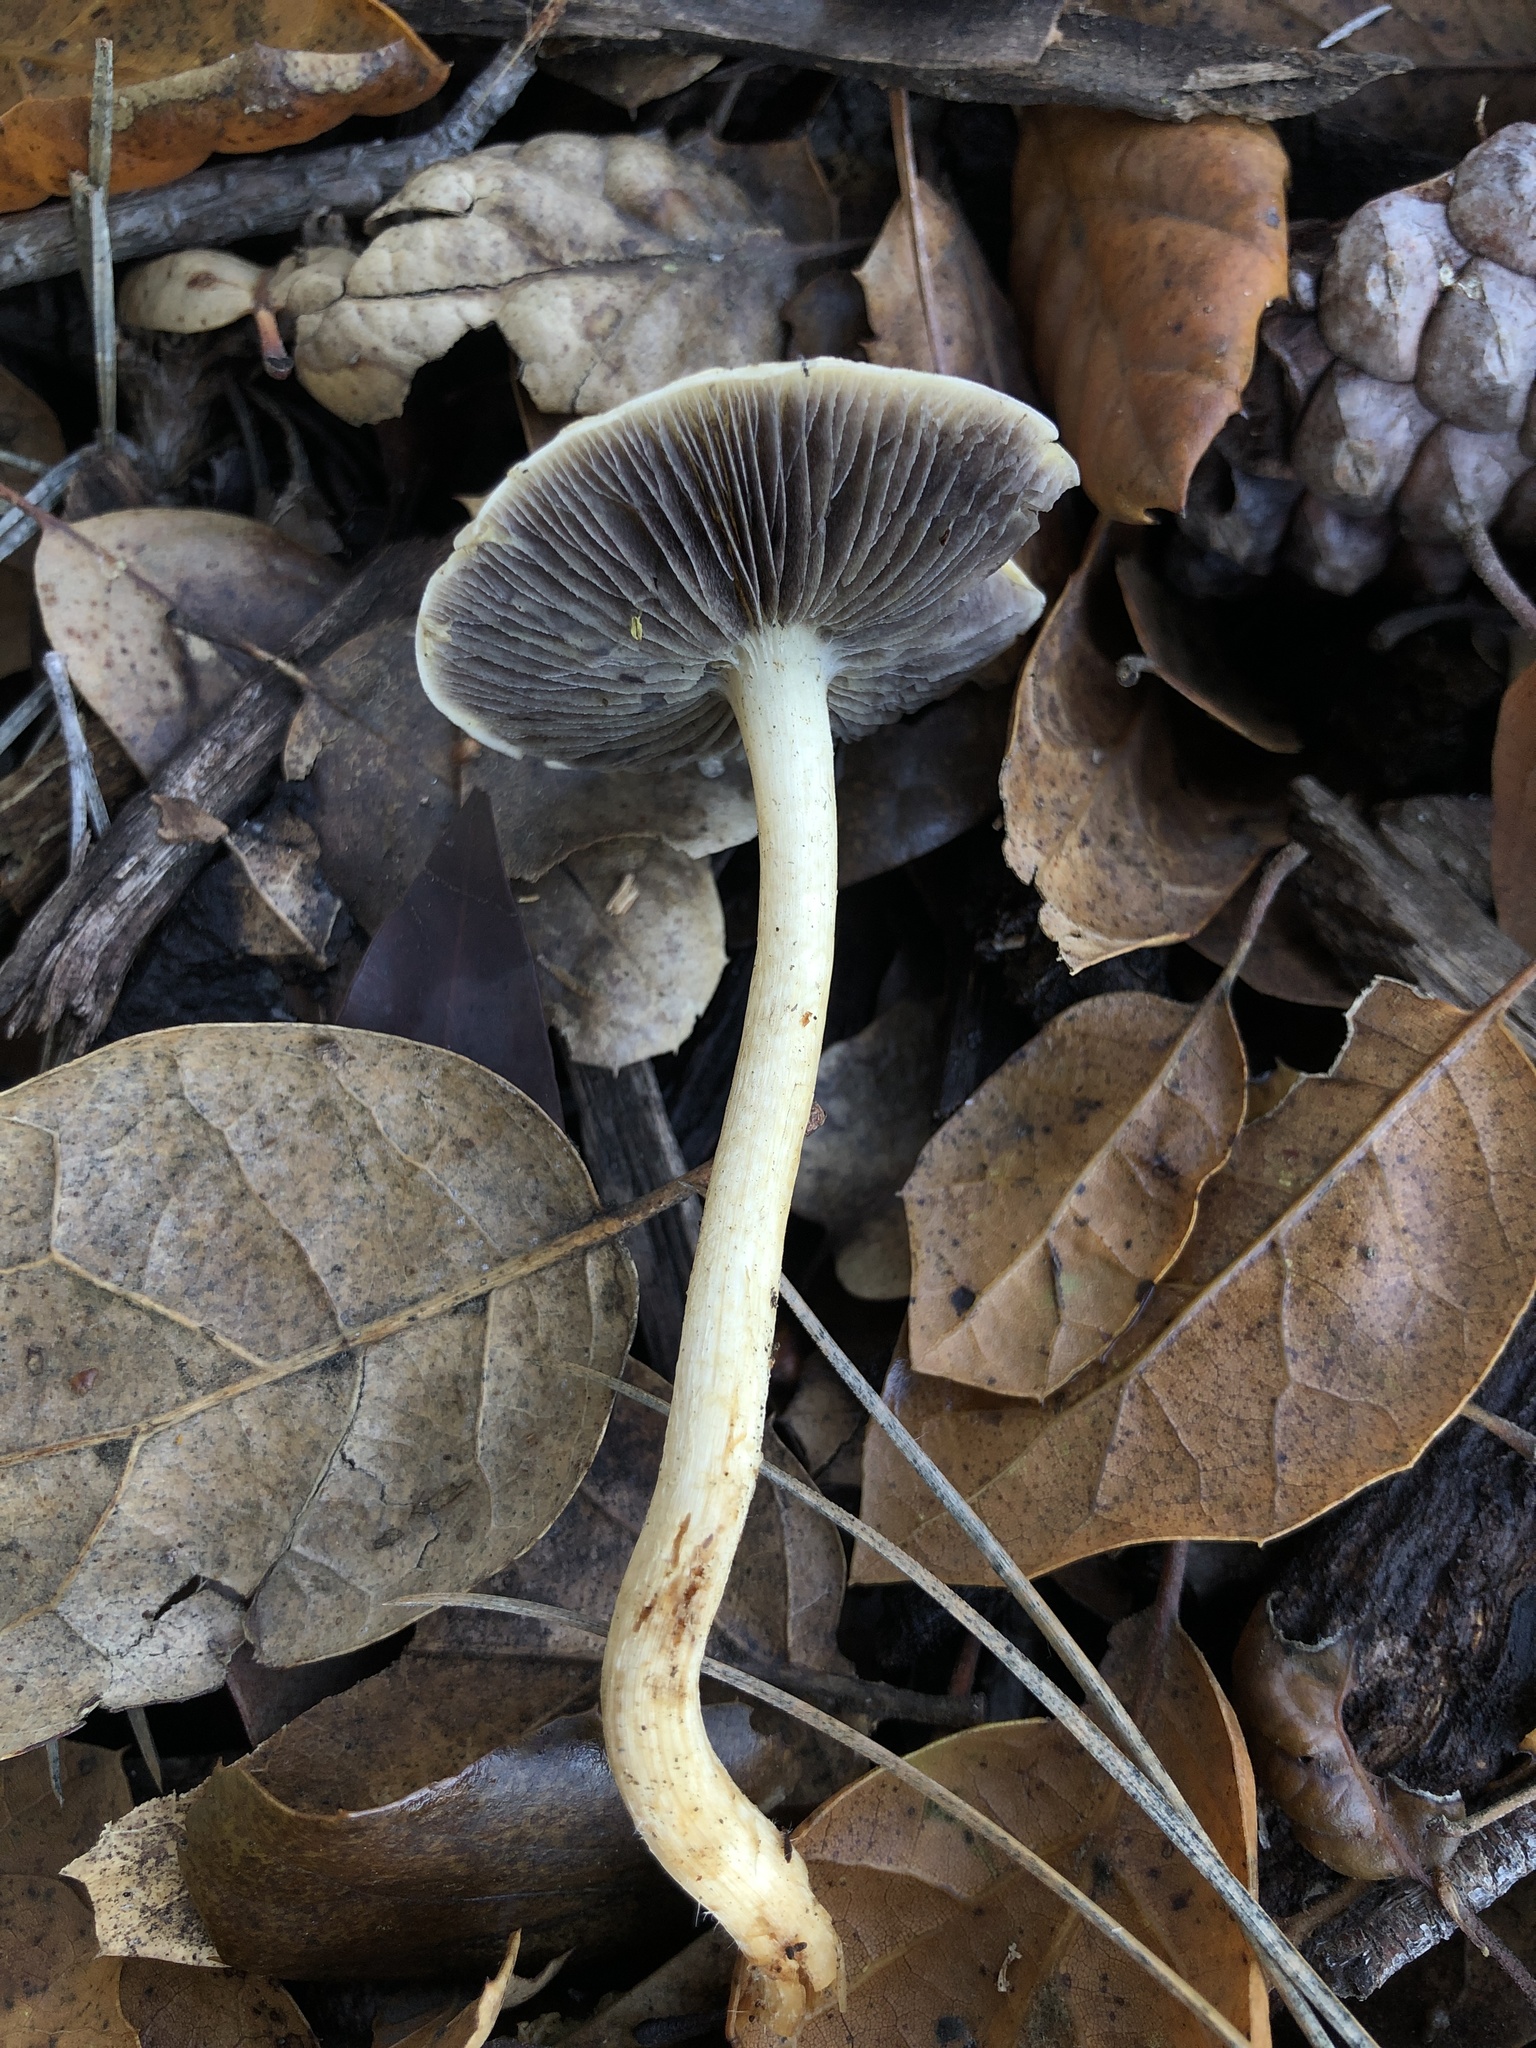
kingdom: Fungi
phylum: Basidiomycota
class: Agaricomycetes
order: Agaricales
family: Strophariaceae
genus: Leratiomyces
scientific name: Leratiomyces percevalii
